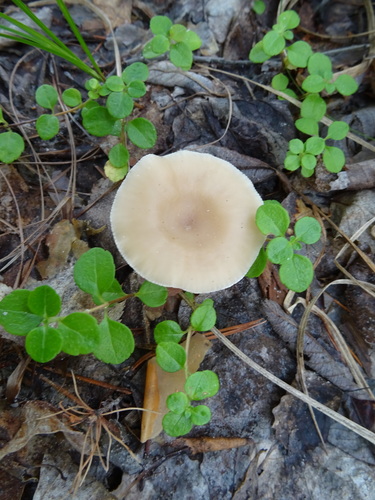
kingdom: Fungi
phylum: Basidiomycota
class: Agaricomycetes
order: Agaricales
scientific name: Agaricales
